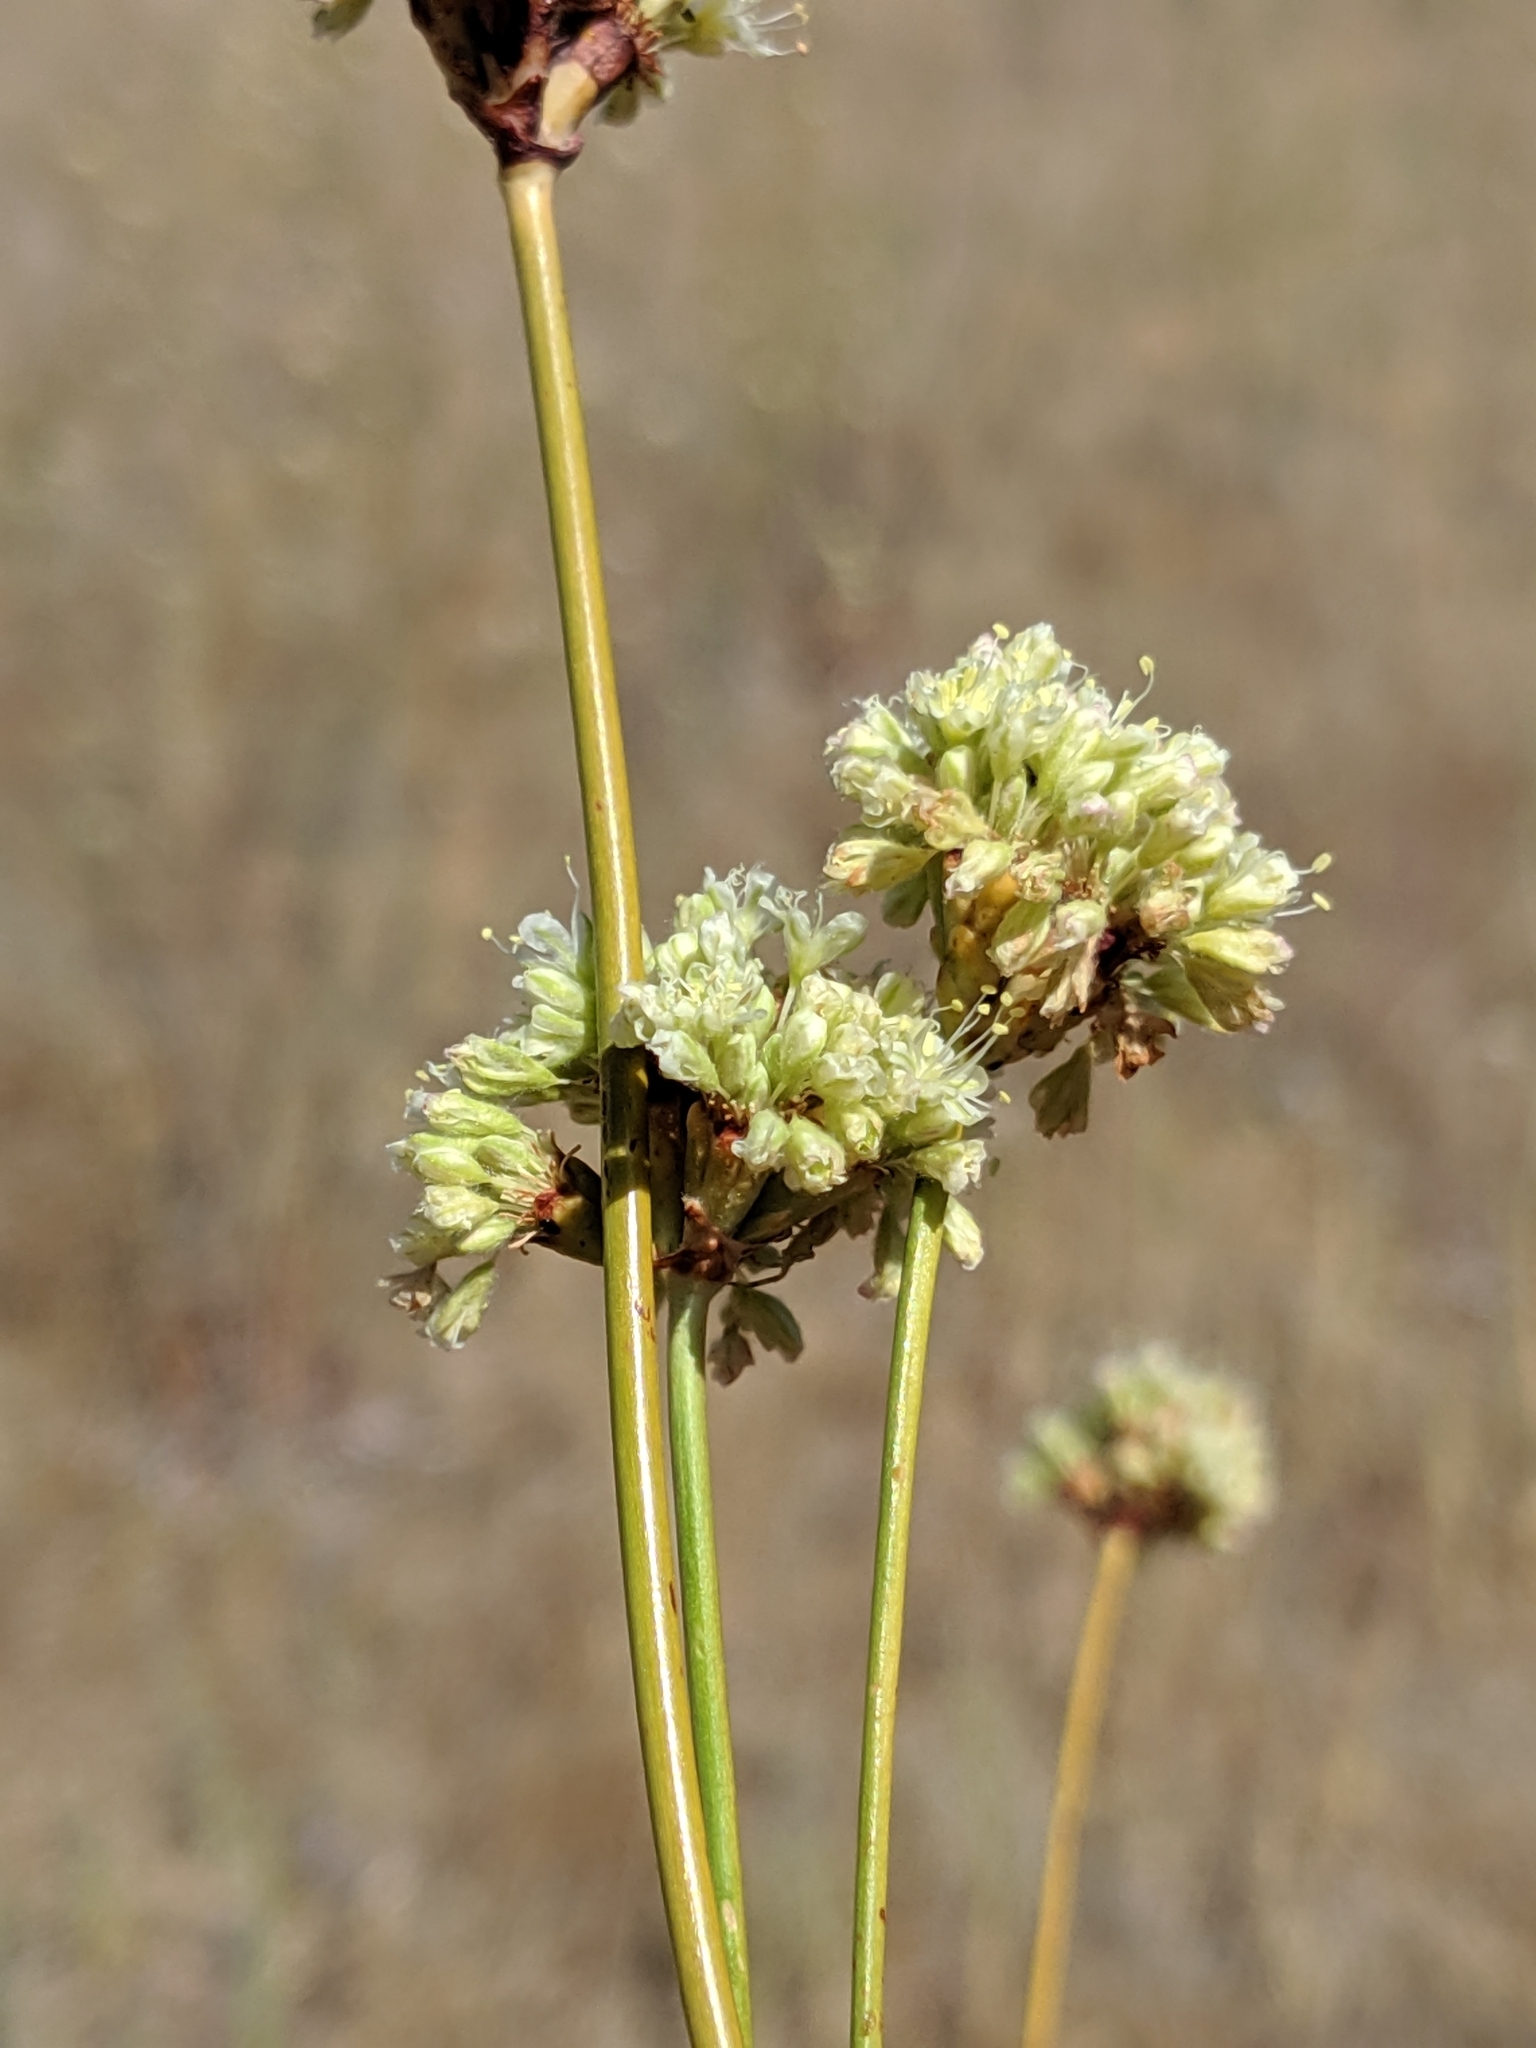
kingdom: Plantae
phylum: Tracheophyta
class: Magnoliopsida
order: Caryophyllales
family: Polygonaceae
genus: Eriogonum
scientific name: Eriogonum nudum
